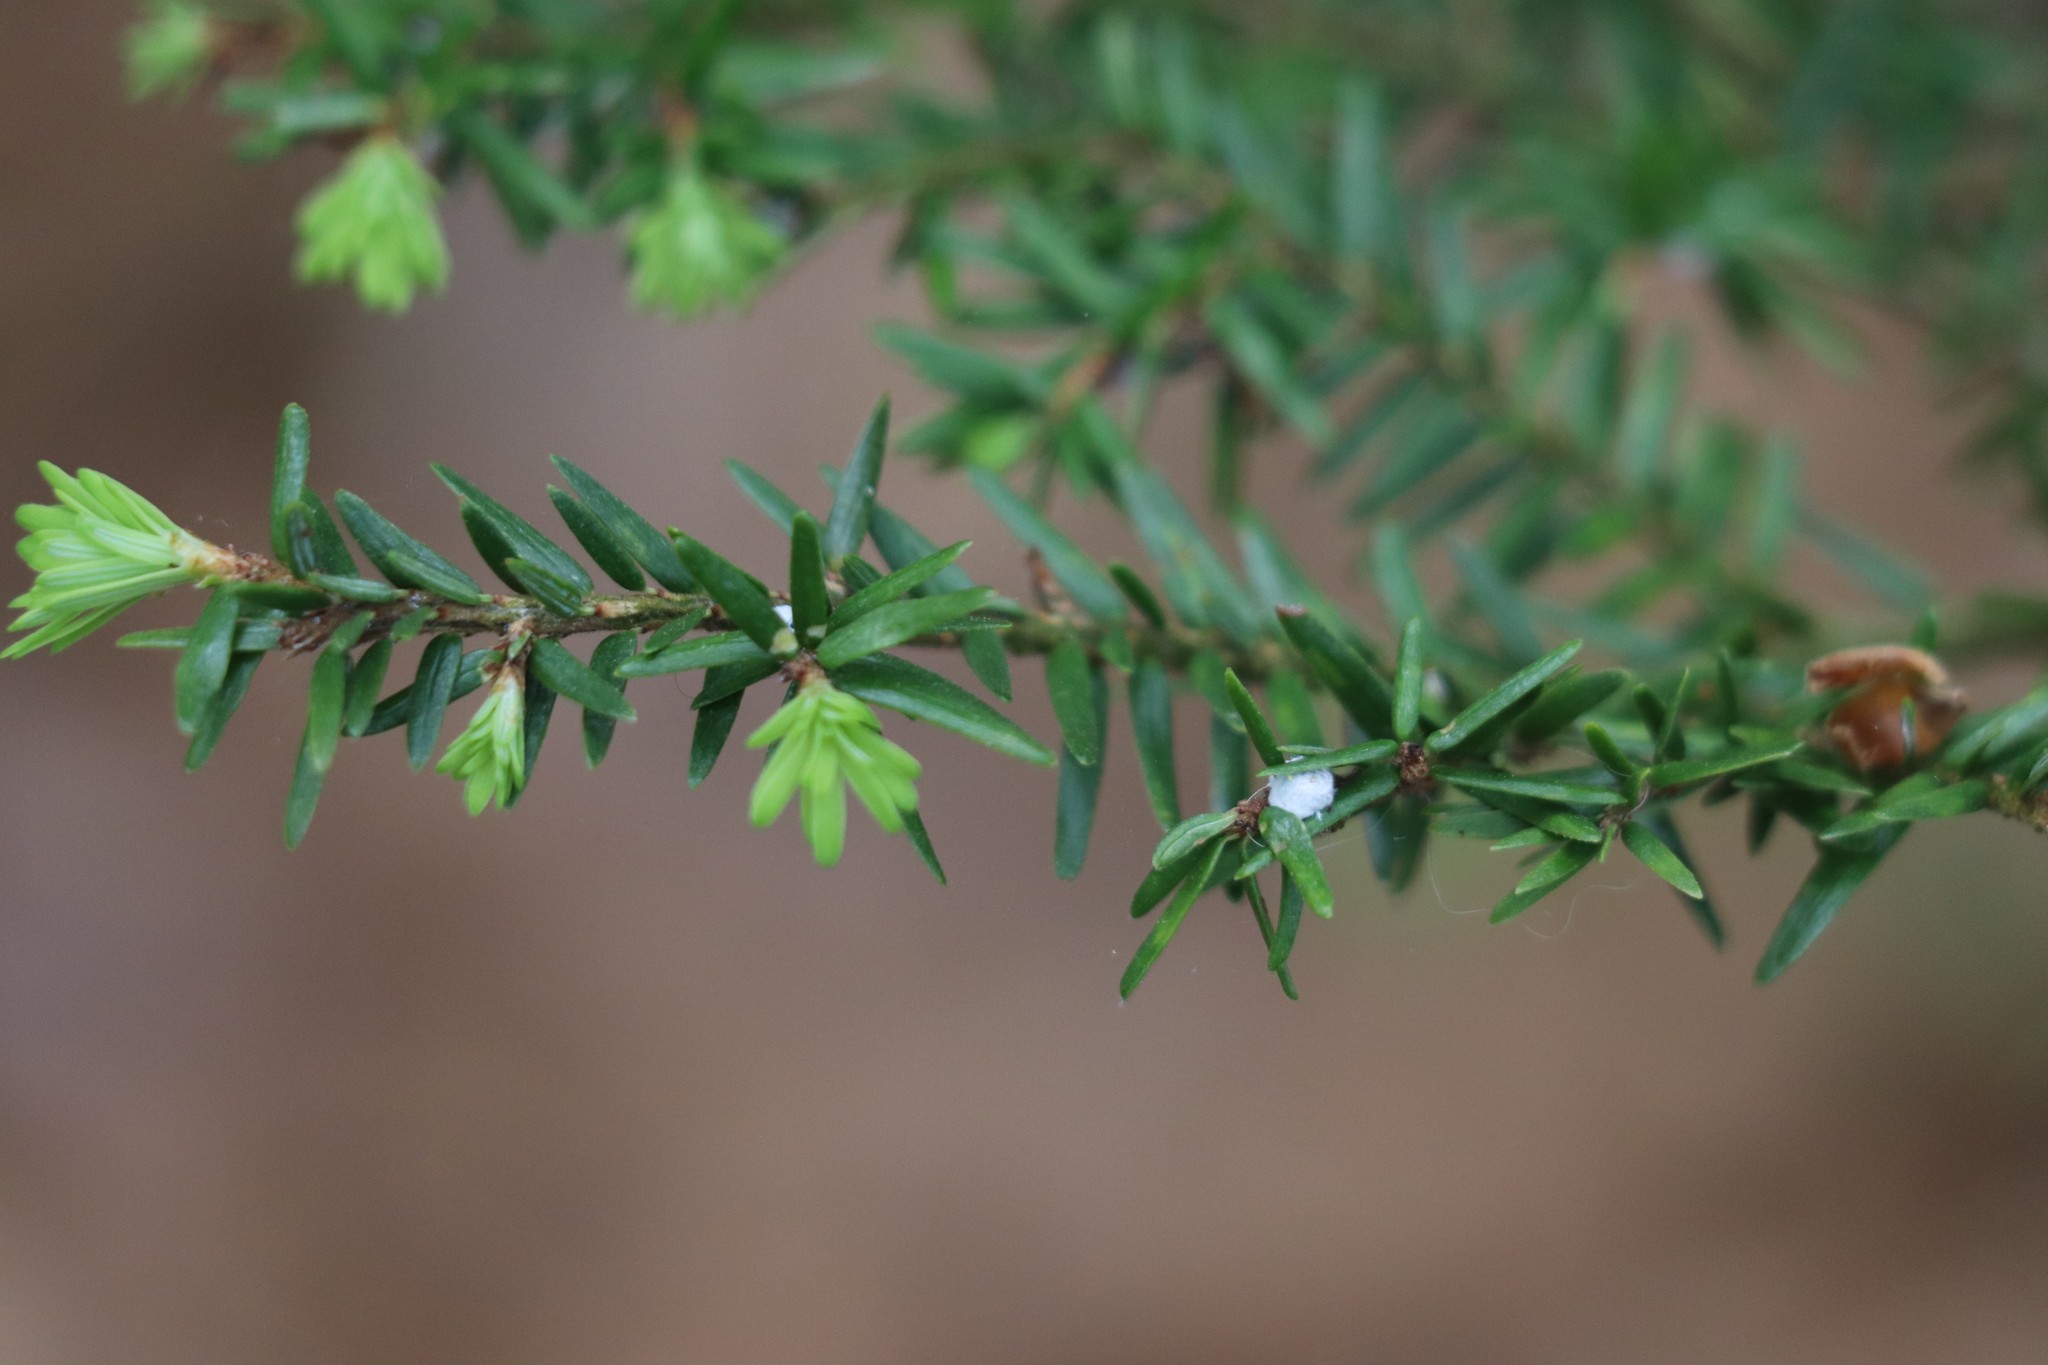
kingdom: Animalia
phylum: Arthropoda
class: Insecta
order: Hemiptera
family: Adelgidae
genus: Adelges
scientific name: Adelges tsugae
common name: Hemlock woolly adelgid
